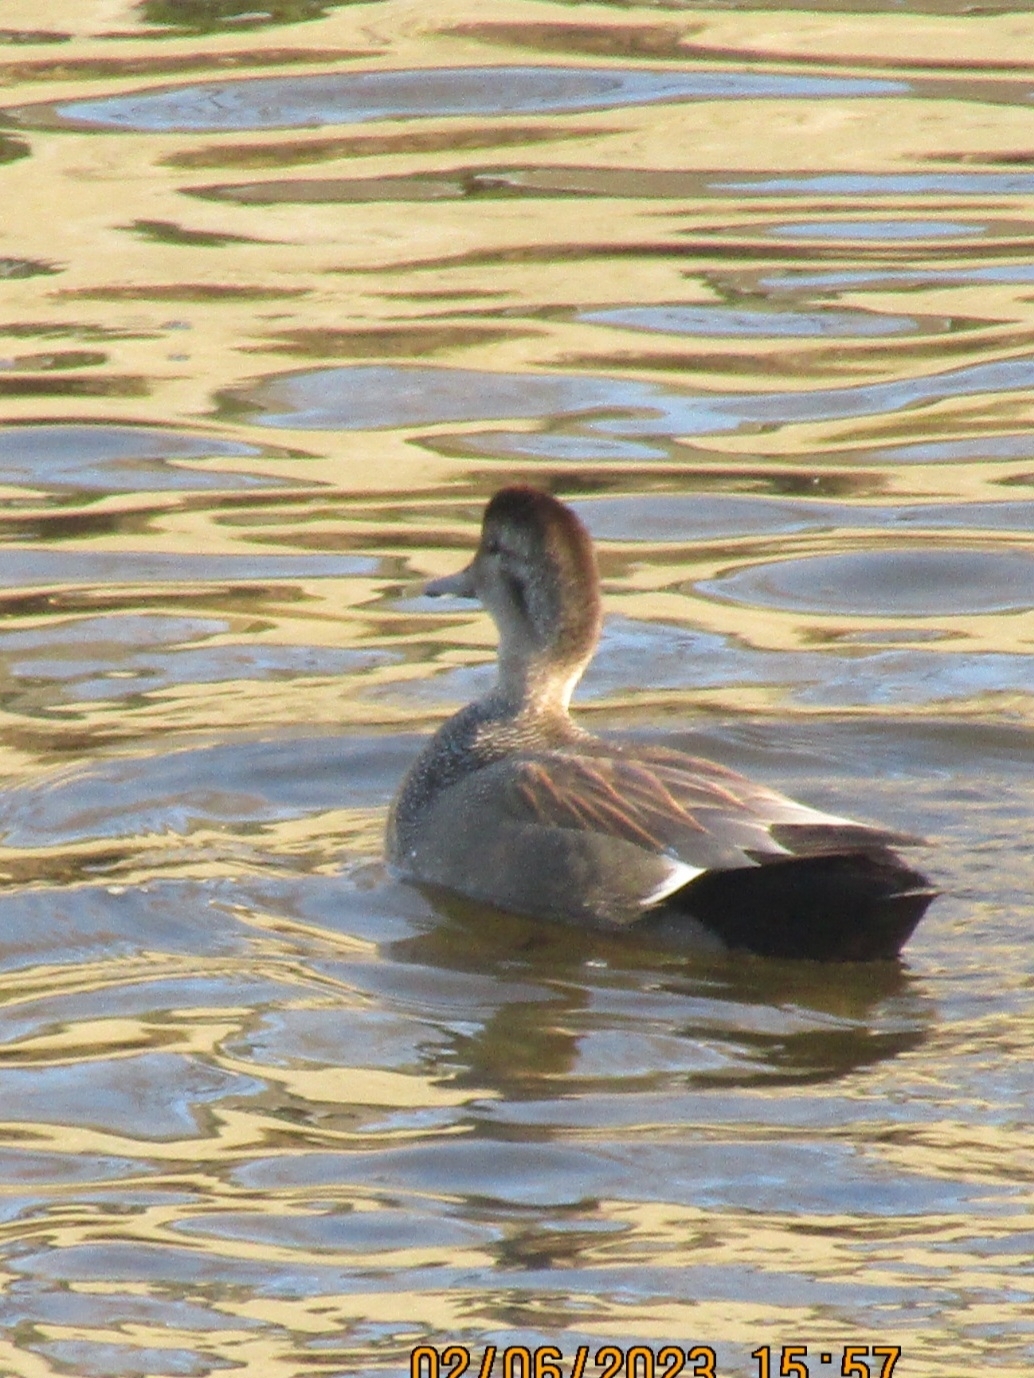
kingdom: Animalia
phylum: Chordata
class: Aves
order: Anseriformes
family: Anatidae
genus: Mareca
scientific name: Mareca strepera
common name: Gadwall
